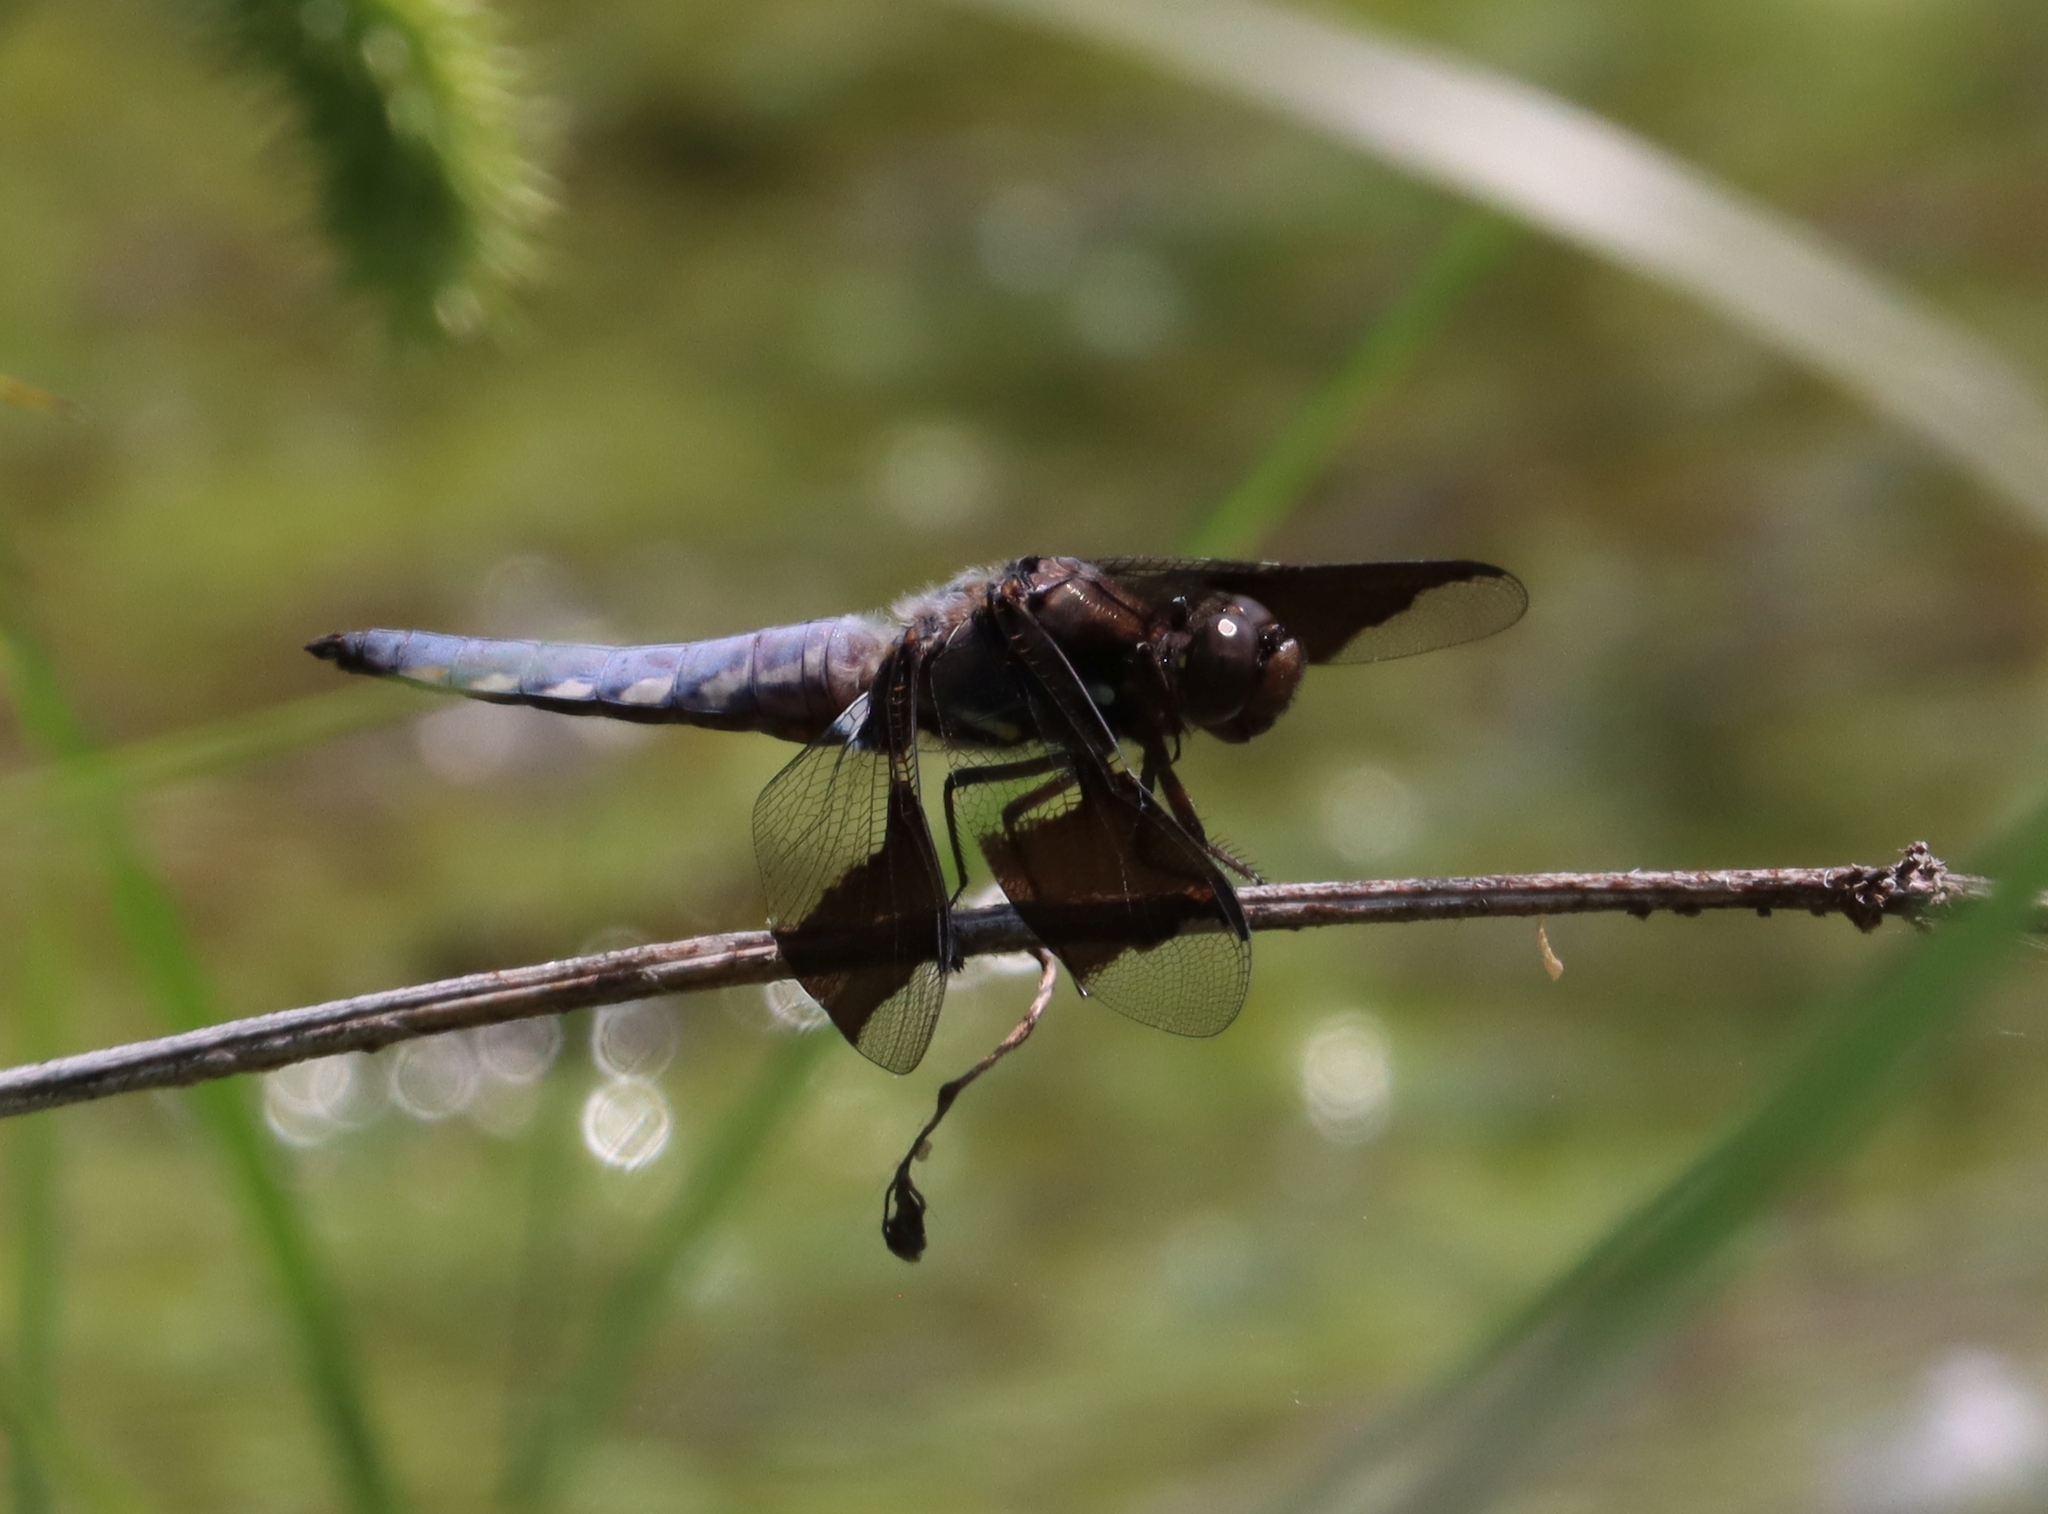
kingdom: Animalia
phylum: Arthropoda
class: Insecta
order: Odonata
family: Libellulidae
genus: Plathemis
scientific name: Plathemis lydia
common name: Common whitetail
